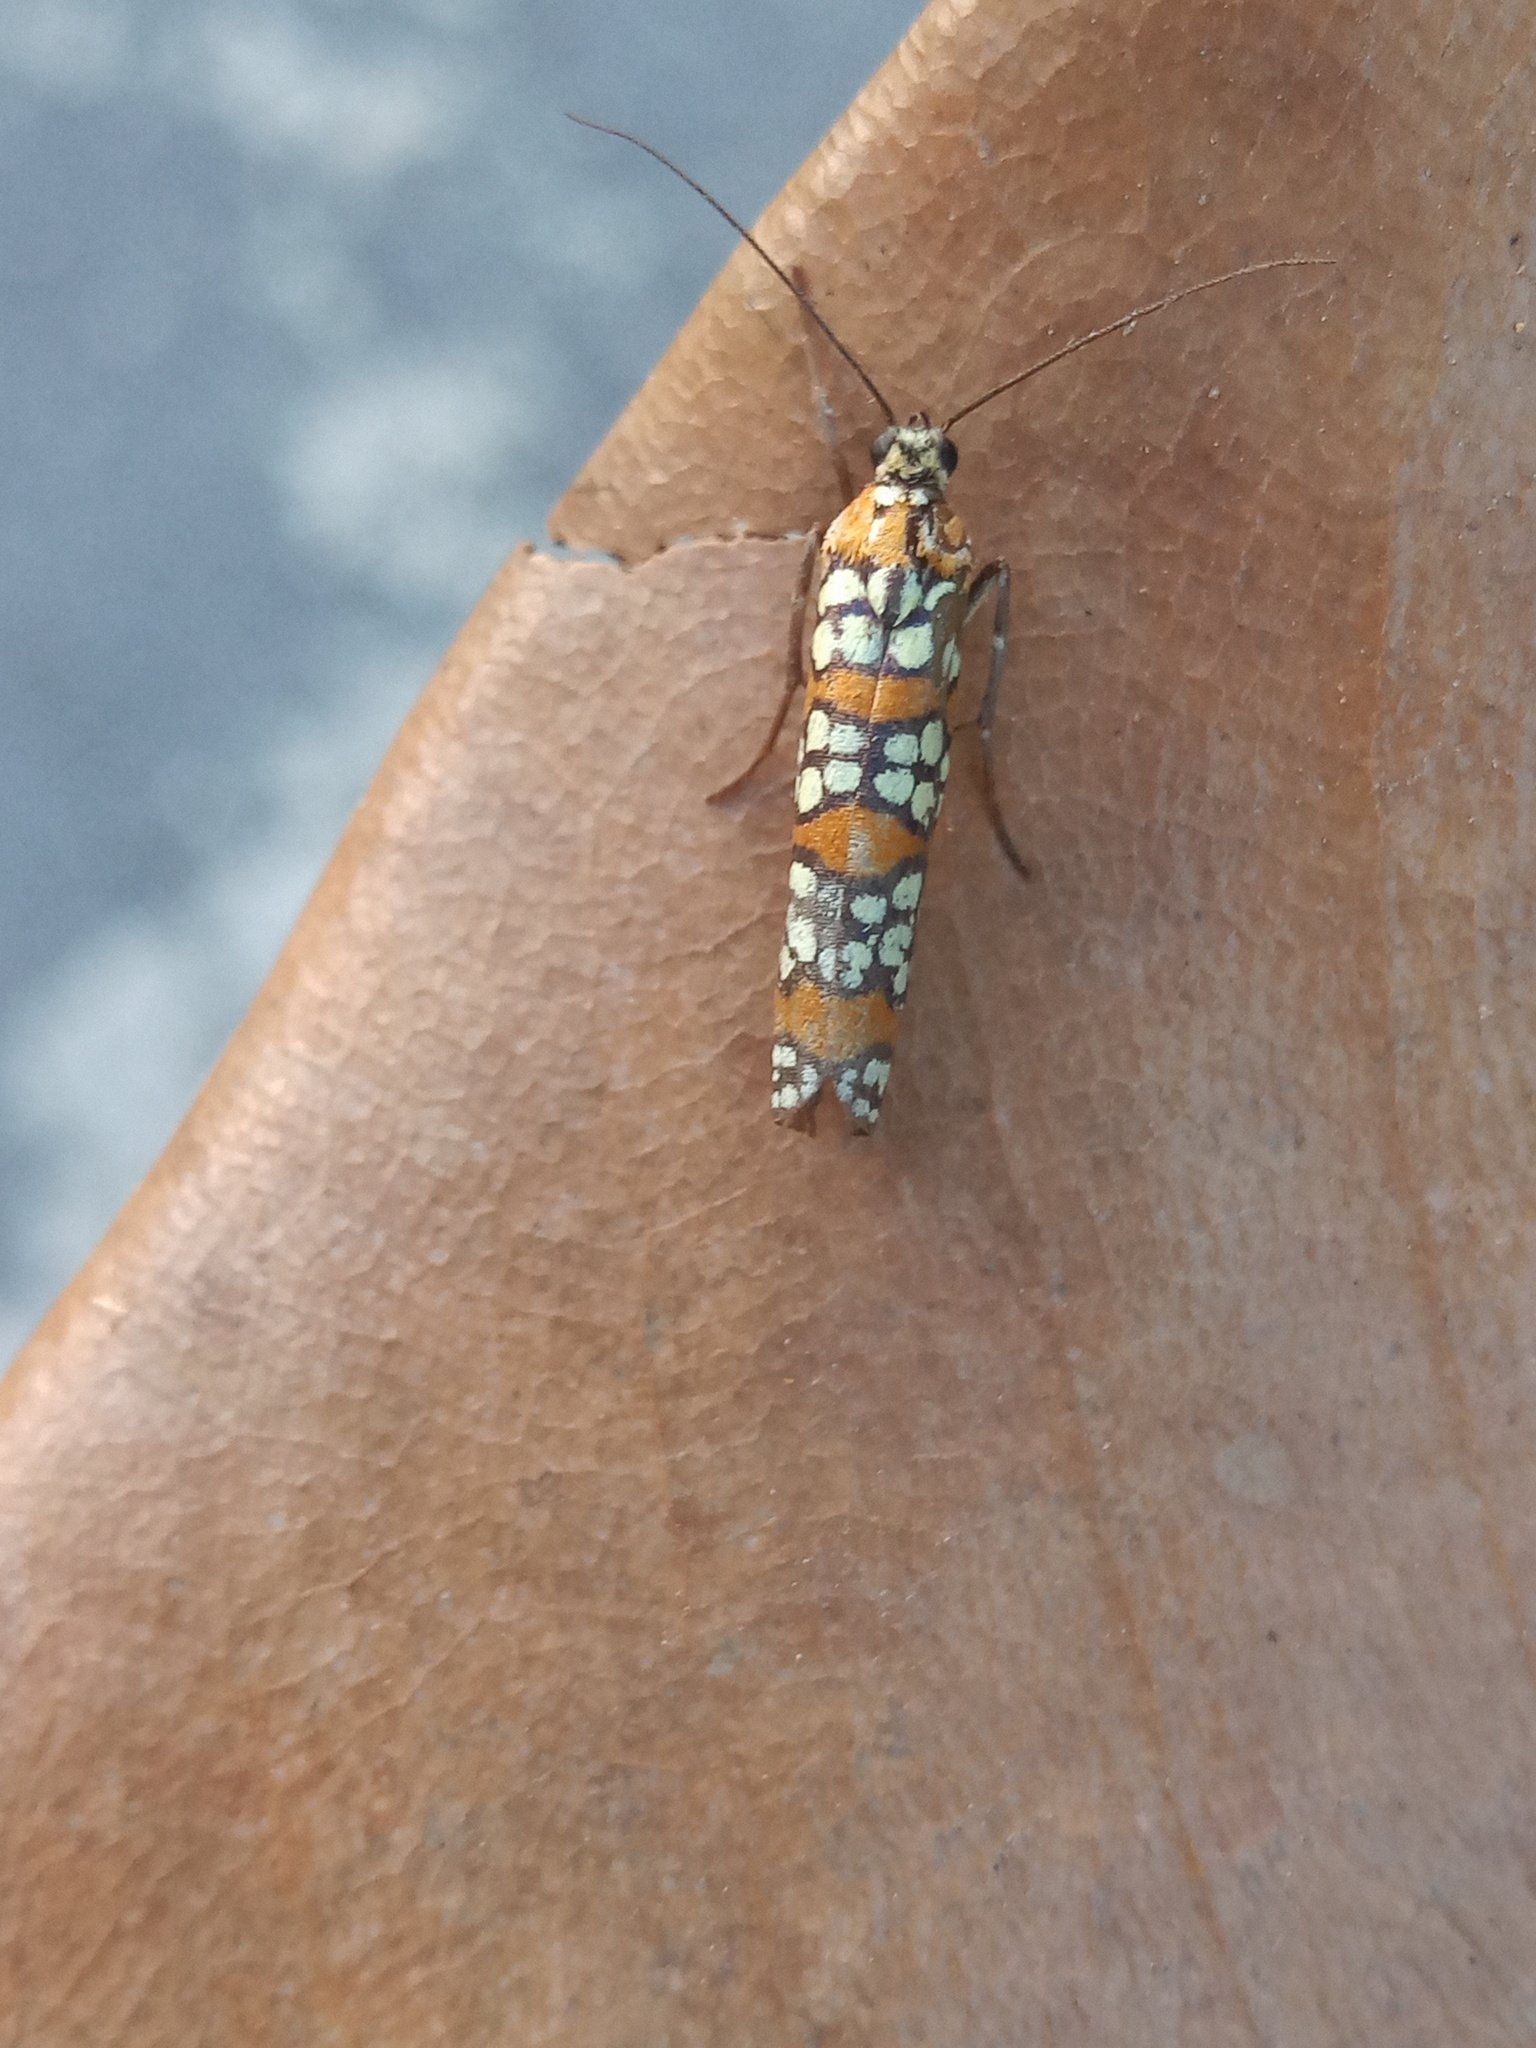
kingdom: Animalia
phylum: Arthropoda
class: Insecta
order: Lepidoptera
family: Attevidae
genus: Atteva
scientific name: Atteva punctella
